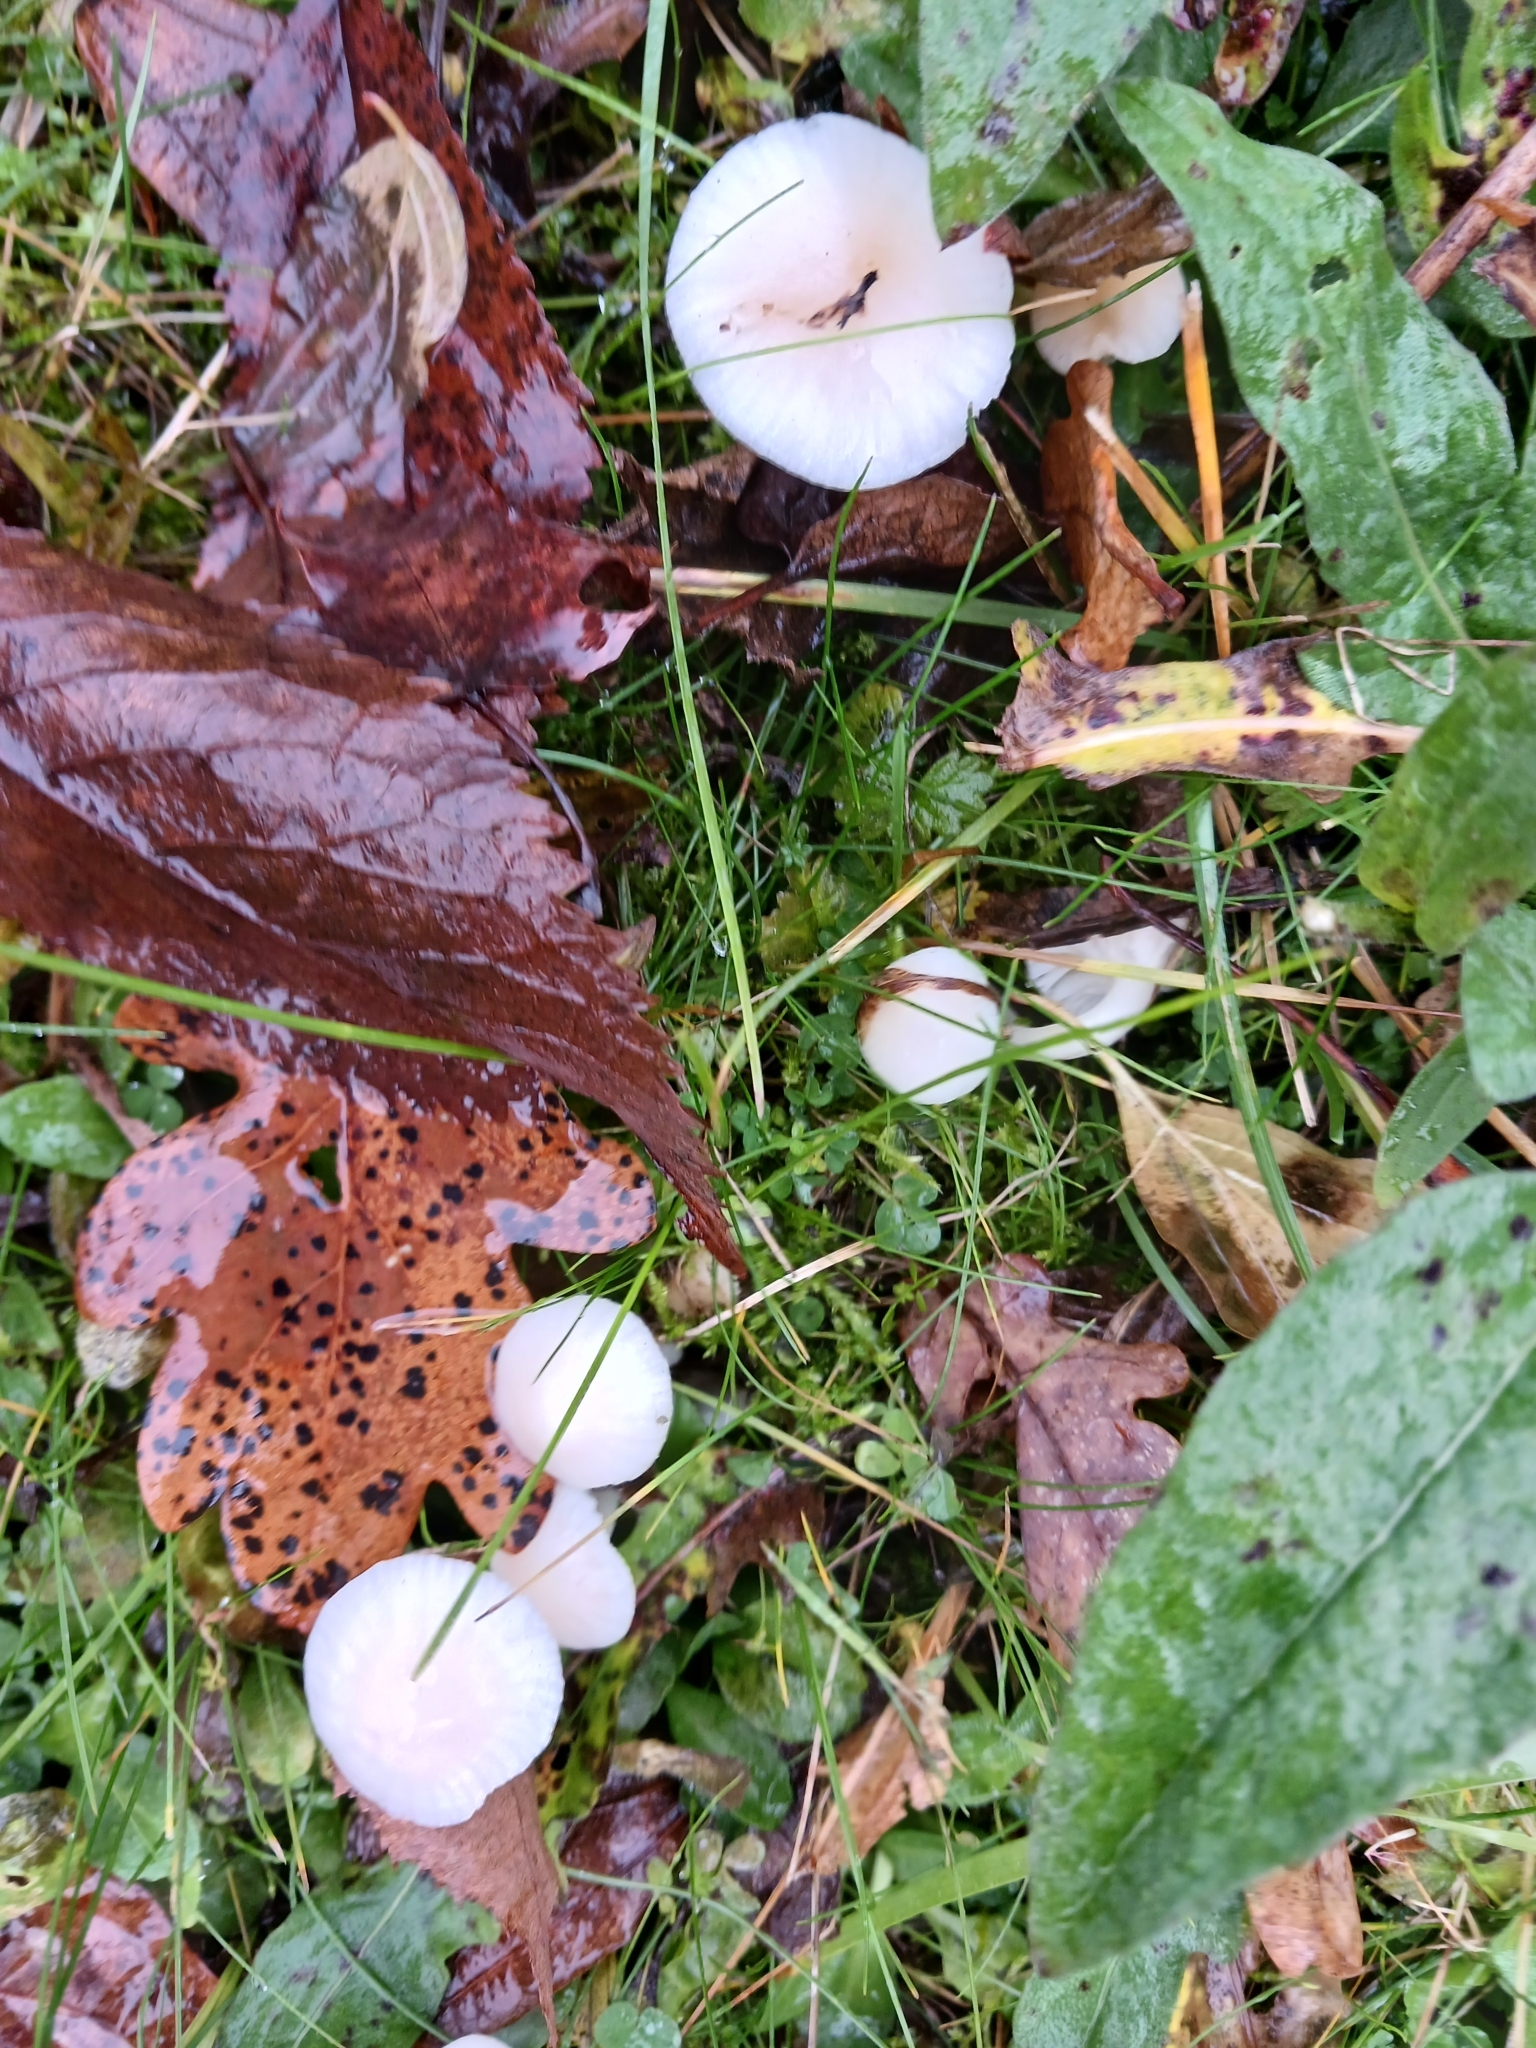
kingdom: Fungi
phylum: Basidiomycota
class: Agaricomycetes
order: Agaricales
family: Hygrophoraceae
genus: Cuphophyllus
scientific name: Cuphophyllus virgineus
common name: Snowy waxcap
